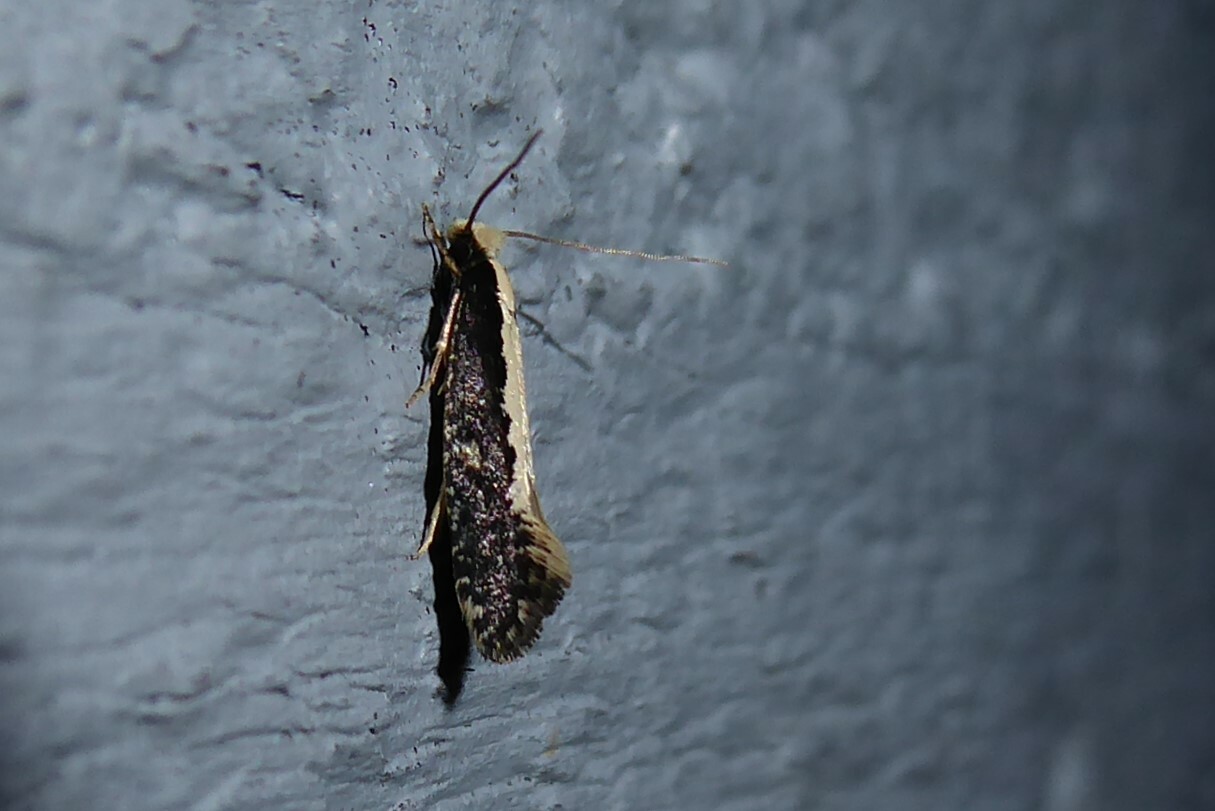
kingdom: Animalia
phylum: Arthropoda
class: Insecta
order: Lepidoptera
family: Tineidae
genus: Monopis
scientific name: Monopis ethelella
